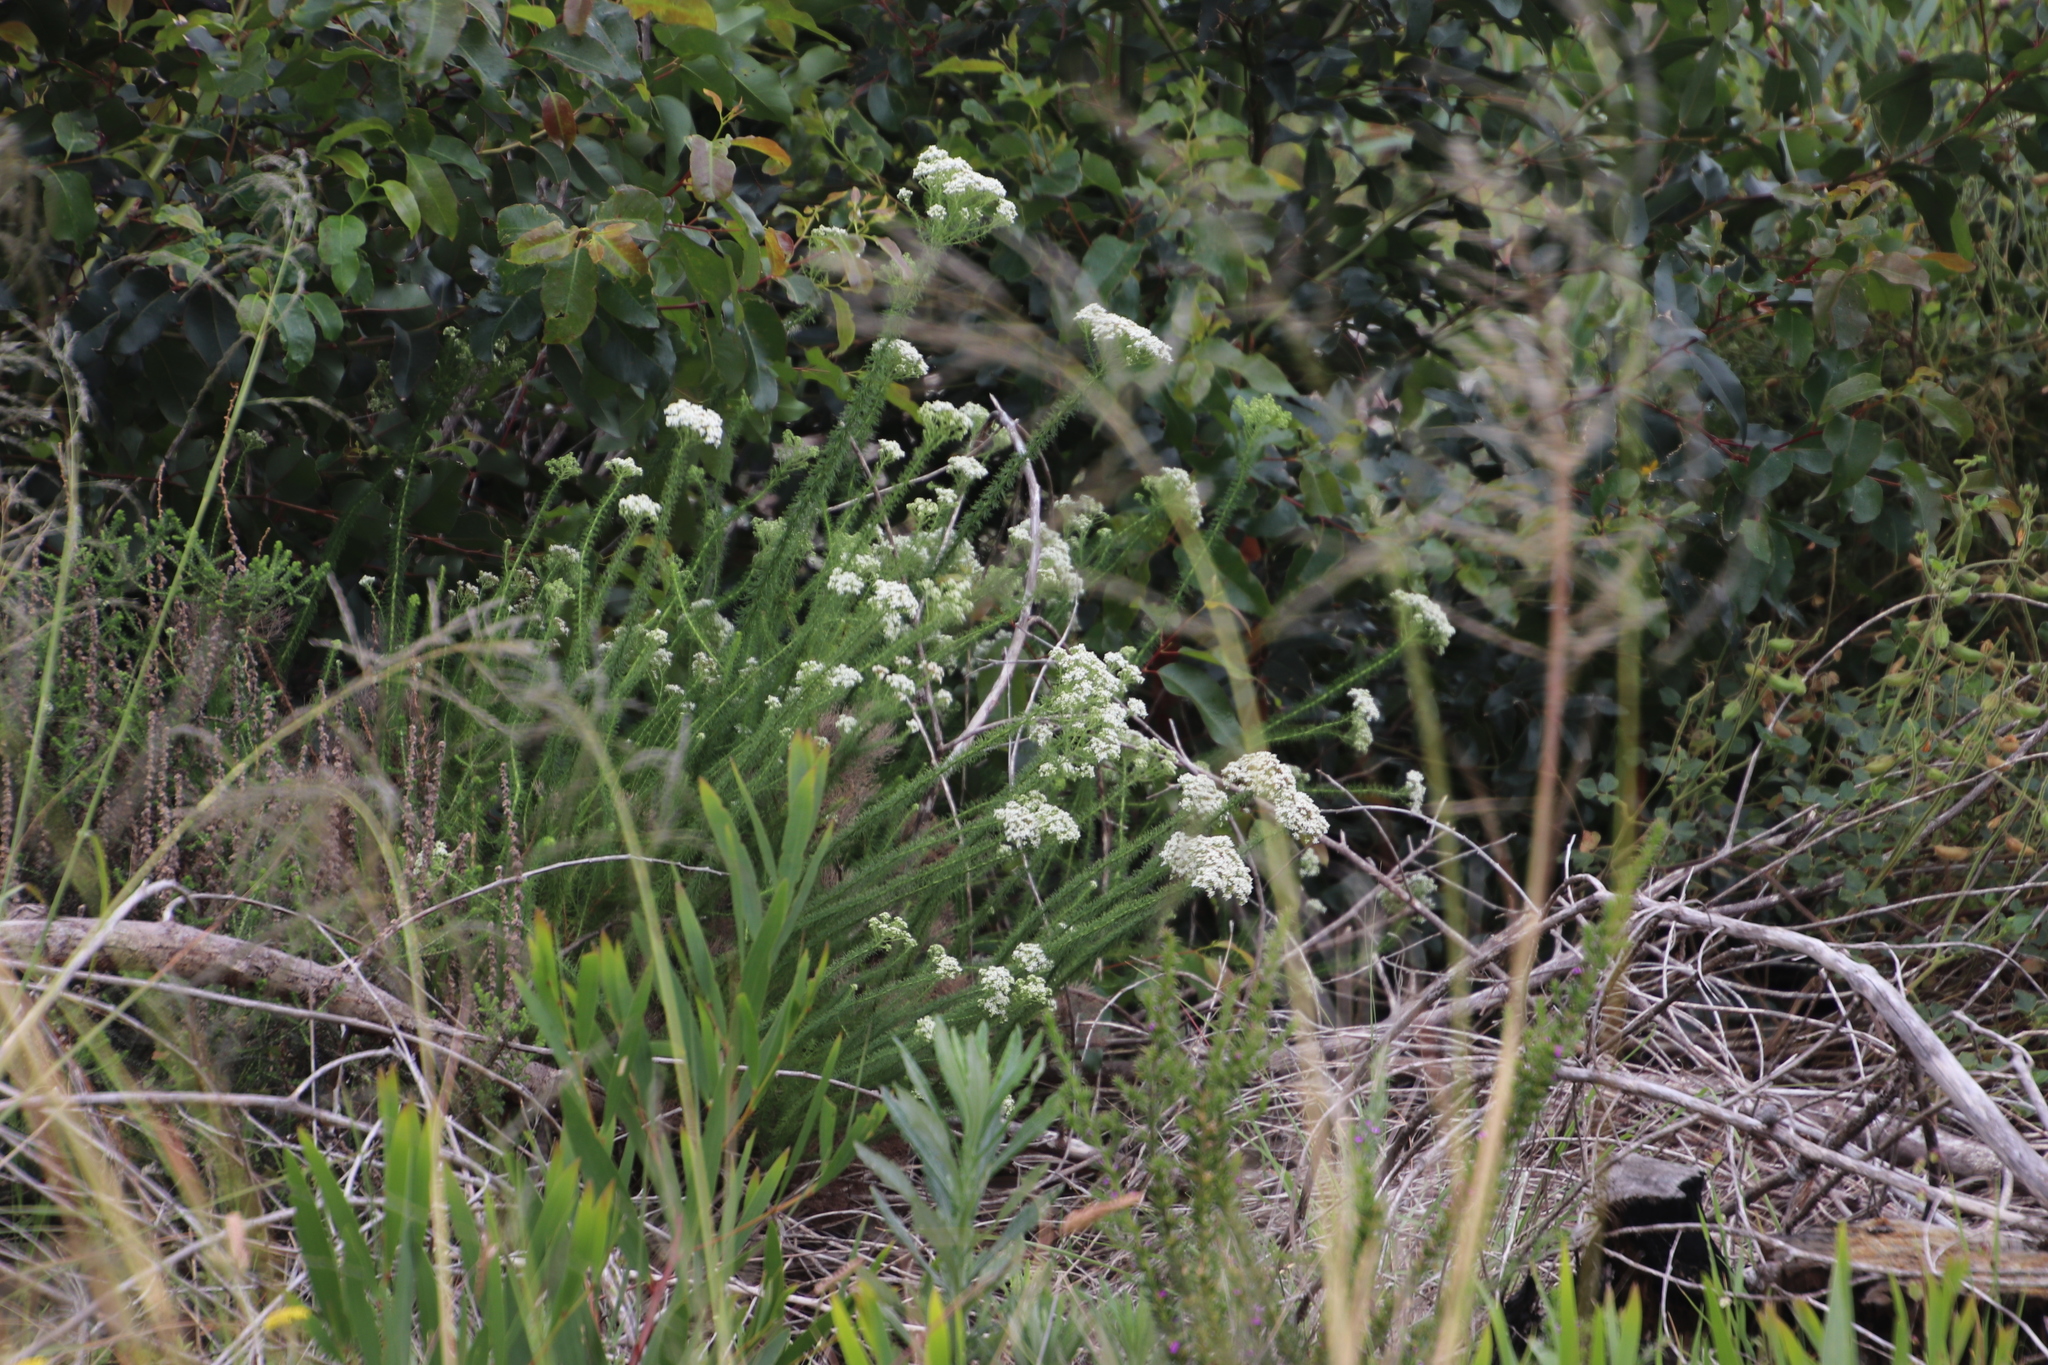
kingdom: Plantae
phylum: Tracheophyta
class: Magnoliopsida
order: Lamiales
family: Scrophulariaceae
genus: Selago
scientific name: Selago corymbosa
